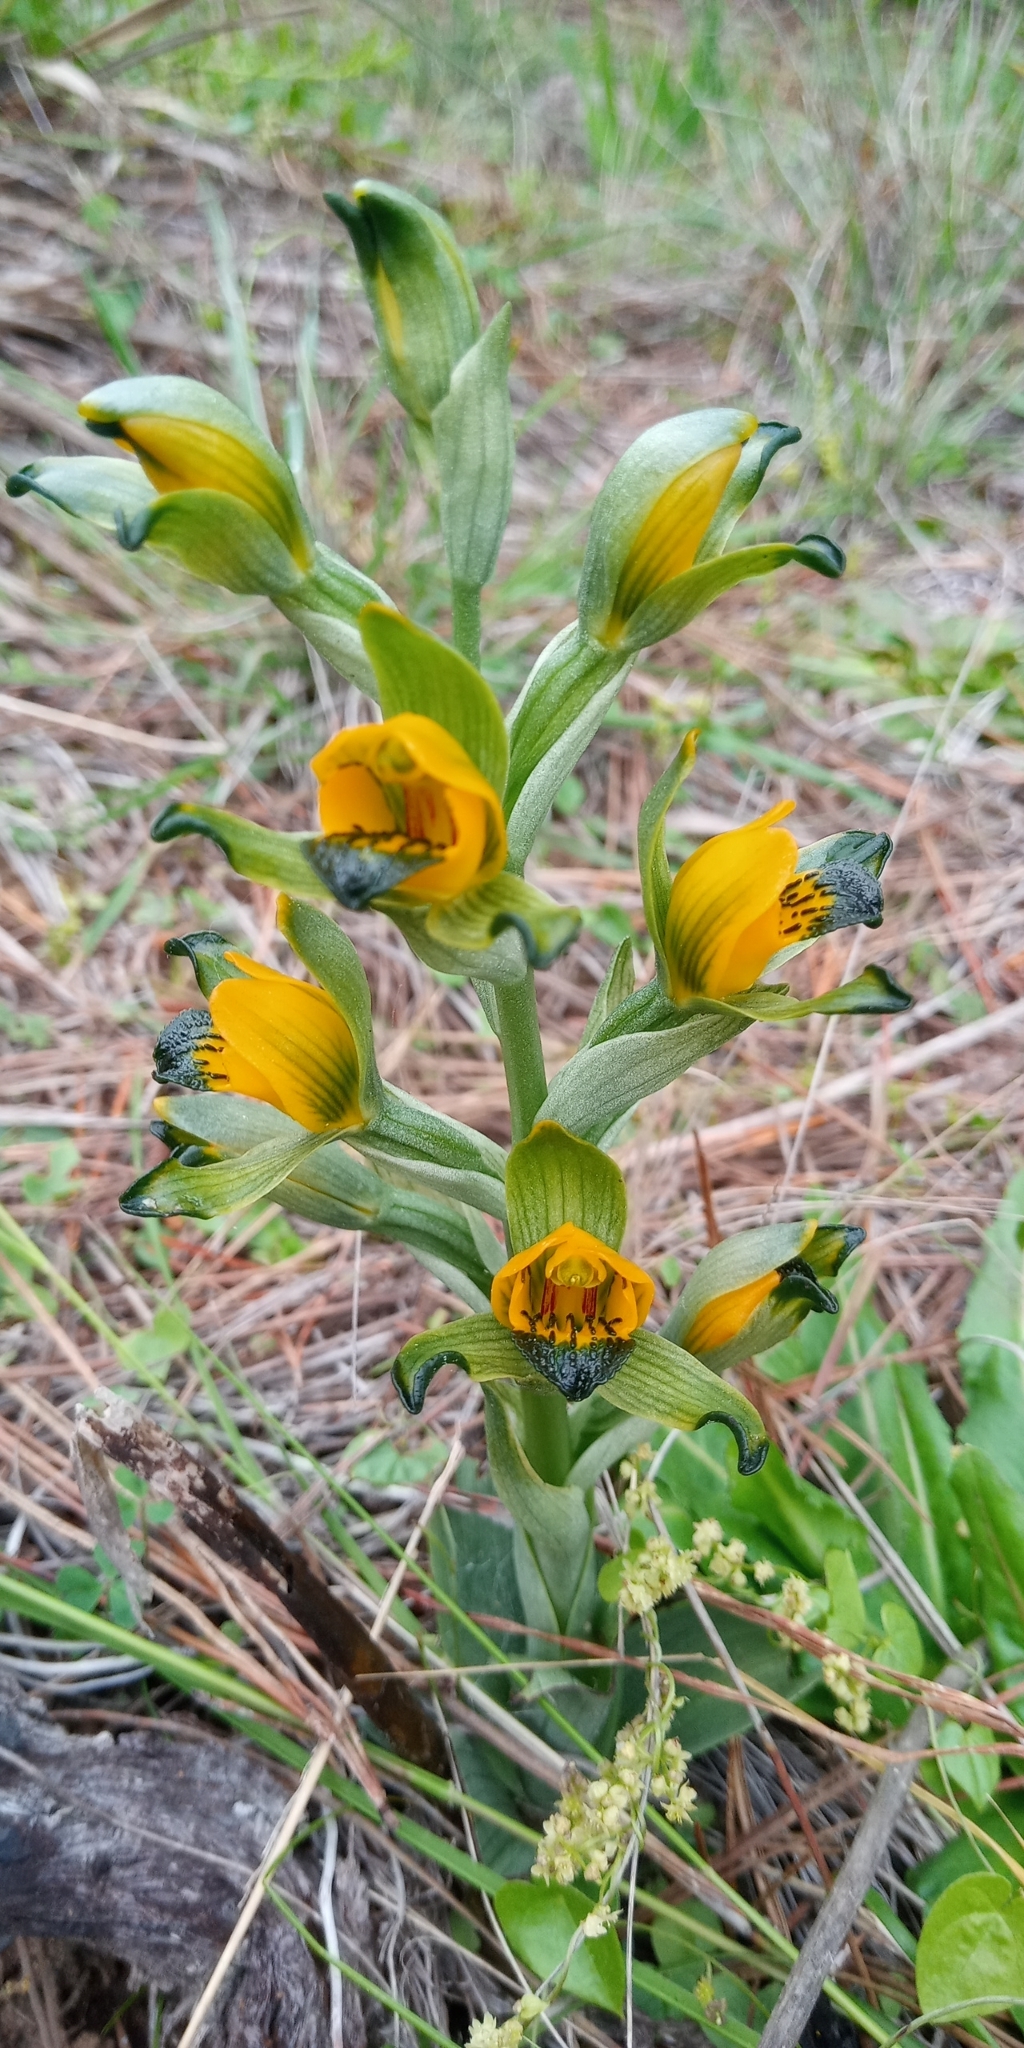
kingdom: Plantae
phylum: Tracheophyta
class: Liliopsida
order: Asparagales
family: Orchidaceae
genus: Chloraea
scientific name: Chloraea disoides
